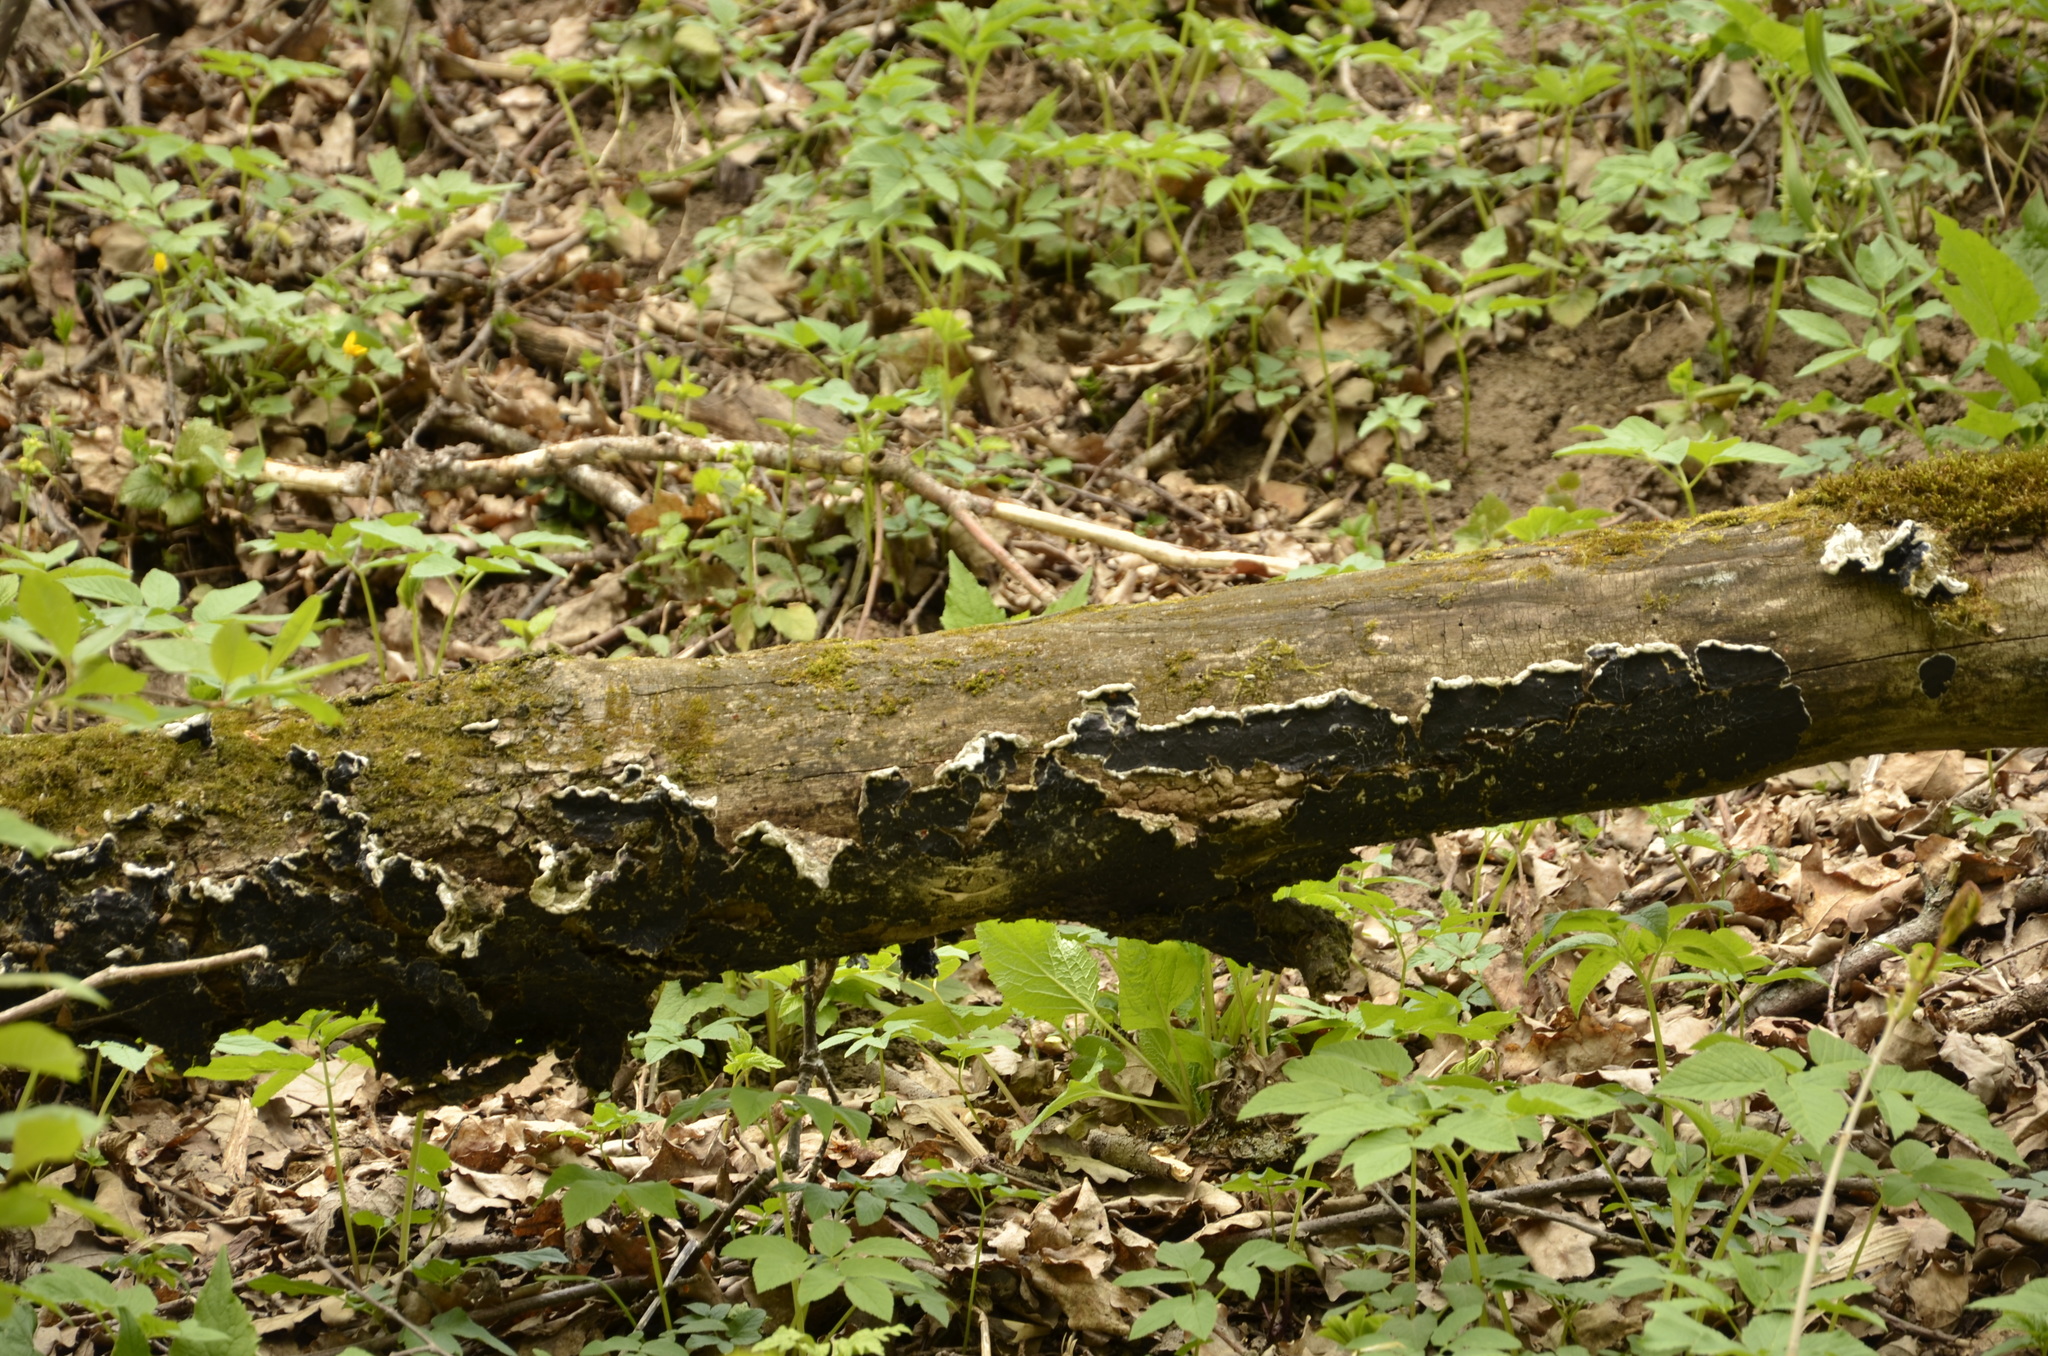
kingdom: Fungi
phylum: Basidiomycota
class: Agaricomycetes
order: Auriculariales
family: Auriculariaceae
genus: Auricularia
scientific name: Auricularia mesenterica
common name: Tripe fungus
